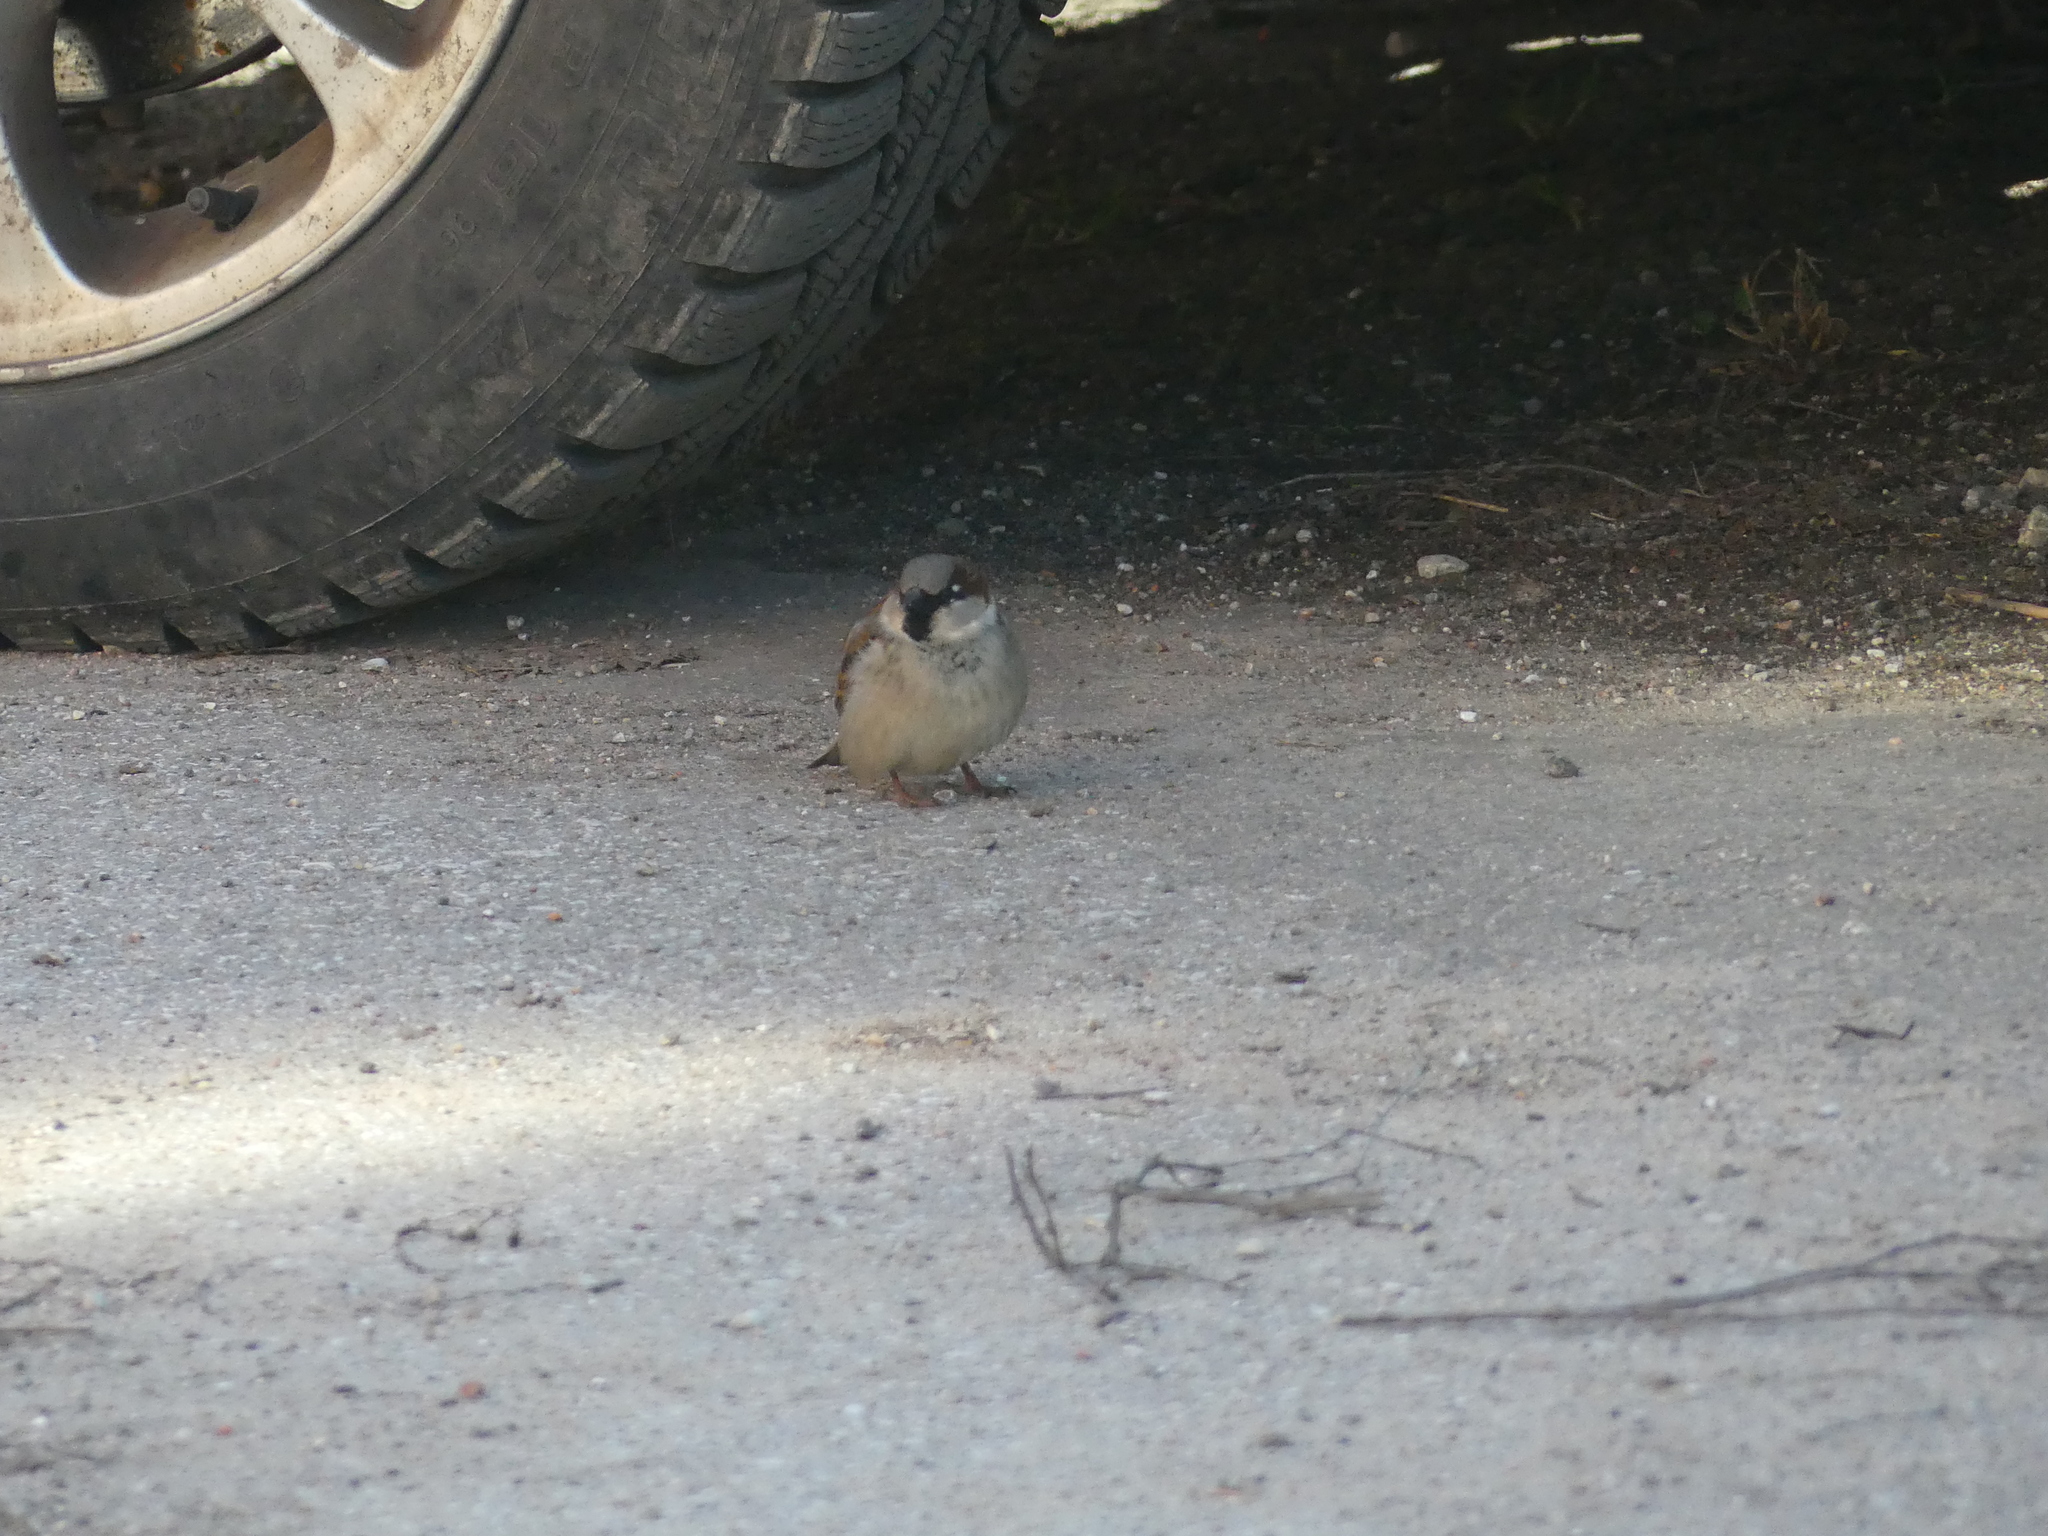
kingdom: Animalia
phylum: Chordata
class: Aves
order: Passeriformes
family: Passeridae
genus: Passer
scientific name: Passer domesticus
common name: House sparrow
